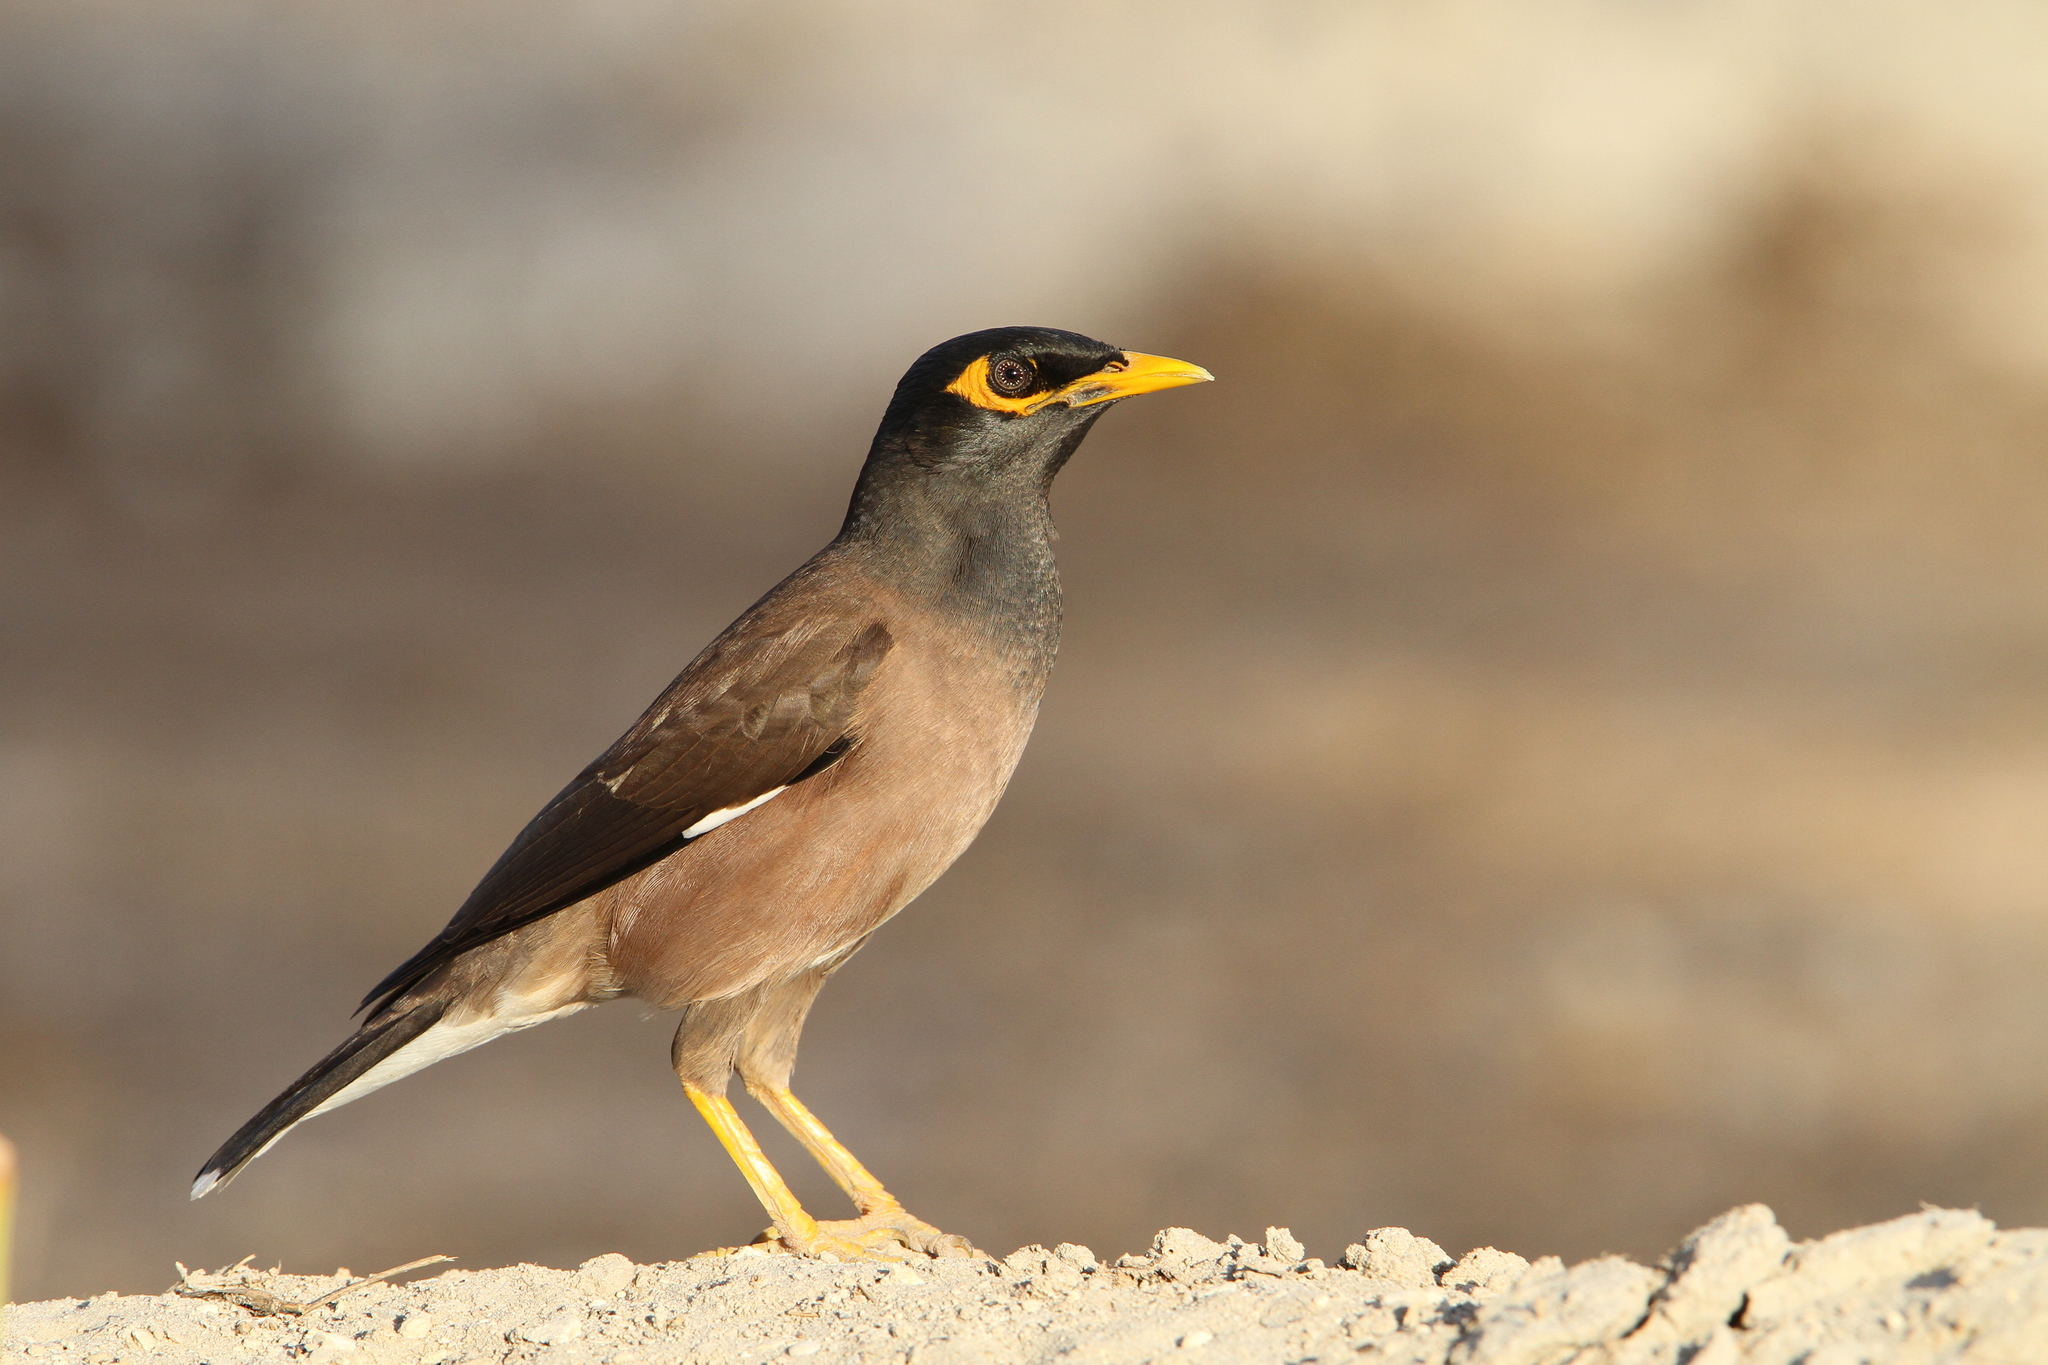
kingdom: Animalia
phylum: Chordata
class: Aves
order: Passeriformes
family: Sturnidae
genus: Acridotheres
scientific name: Acridotheres tristis
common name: Common myna
